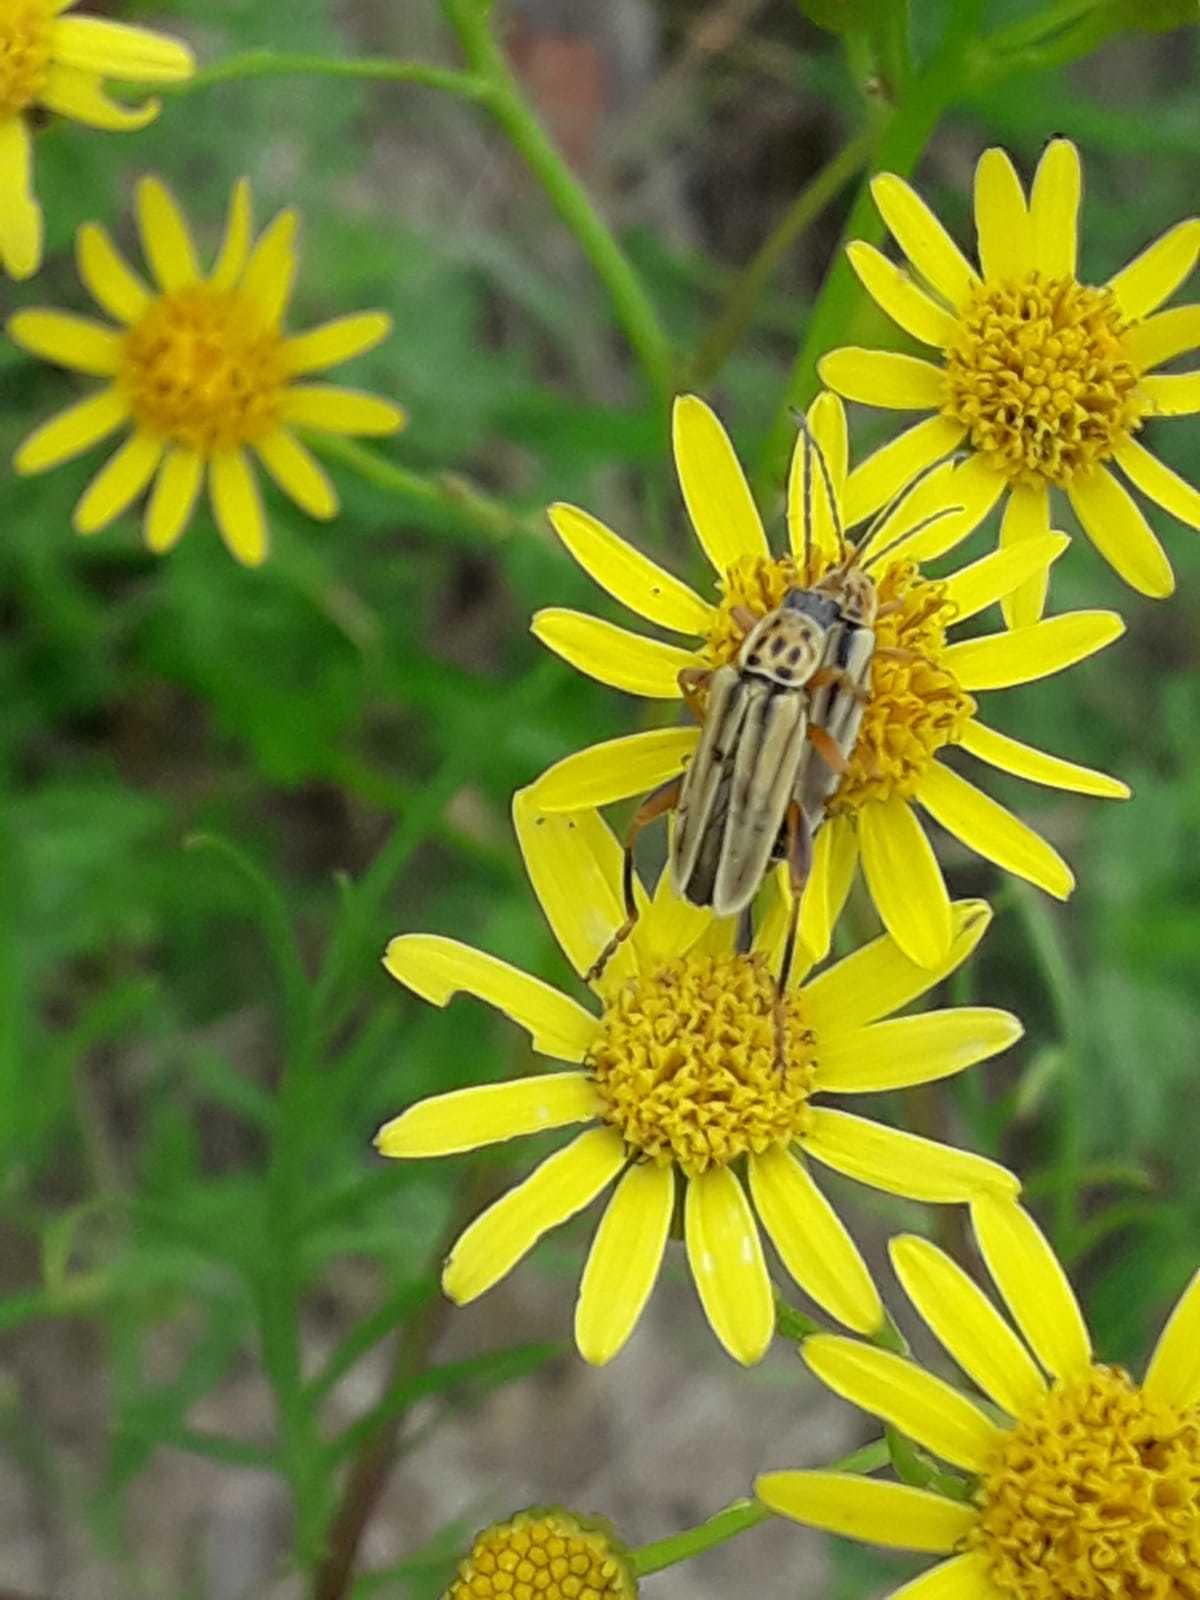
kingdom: Animalia
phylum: Arthropoda
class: Insecta
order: Coleoptera
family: Cantharidae
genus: Chauliognathus
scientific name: Chauliognathus
